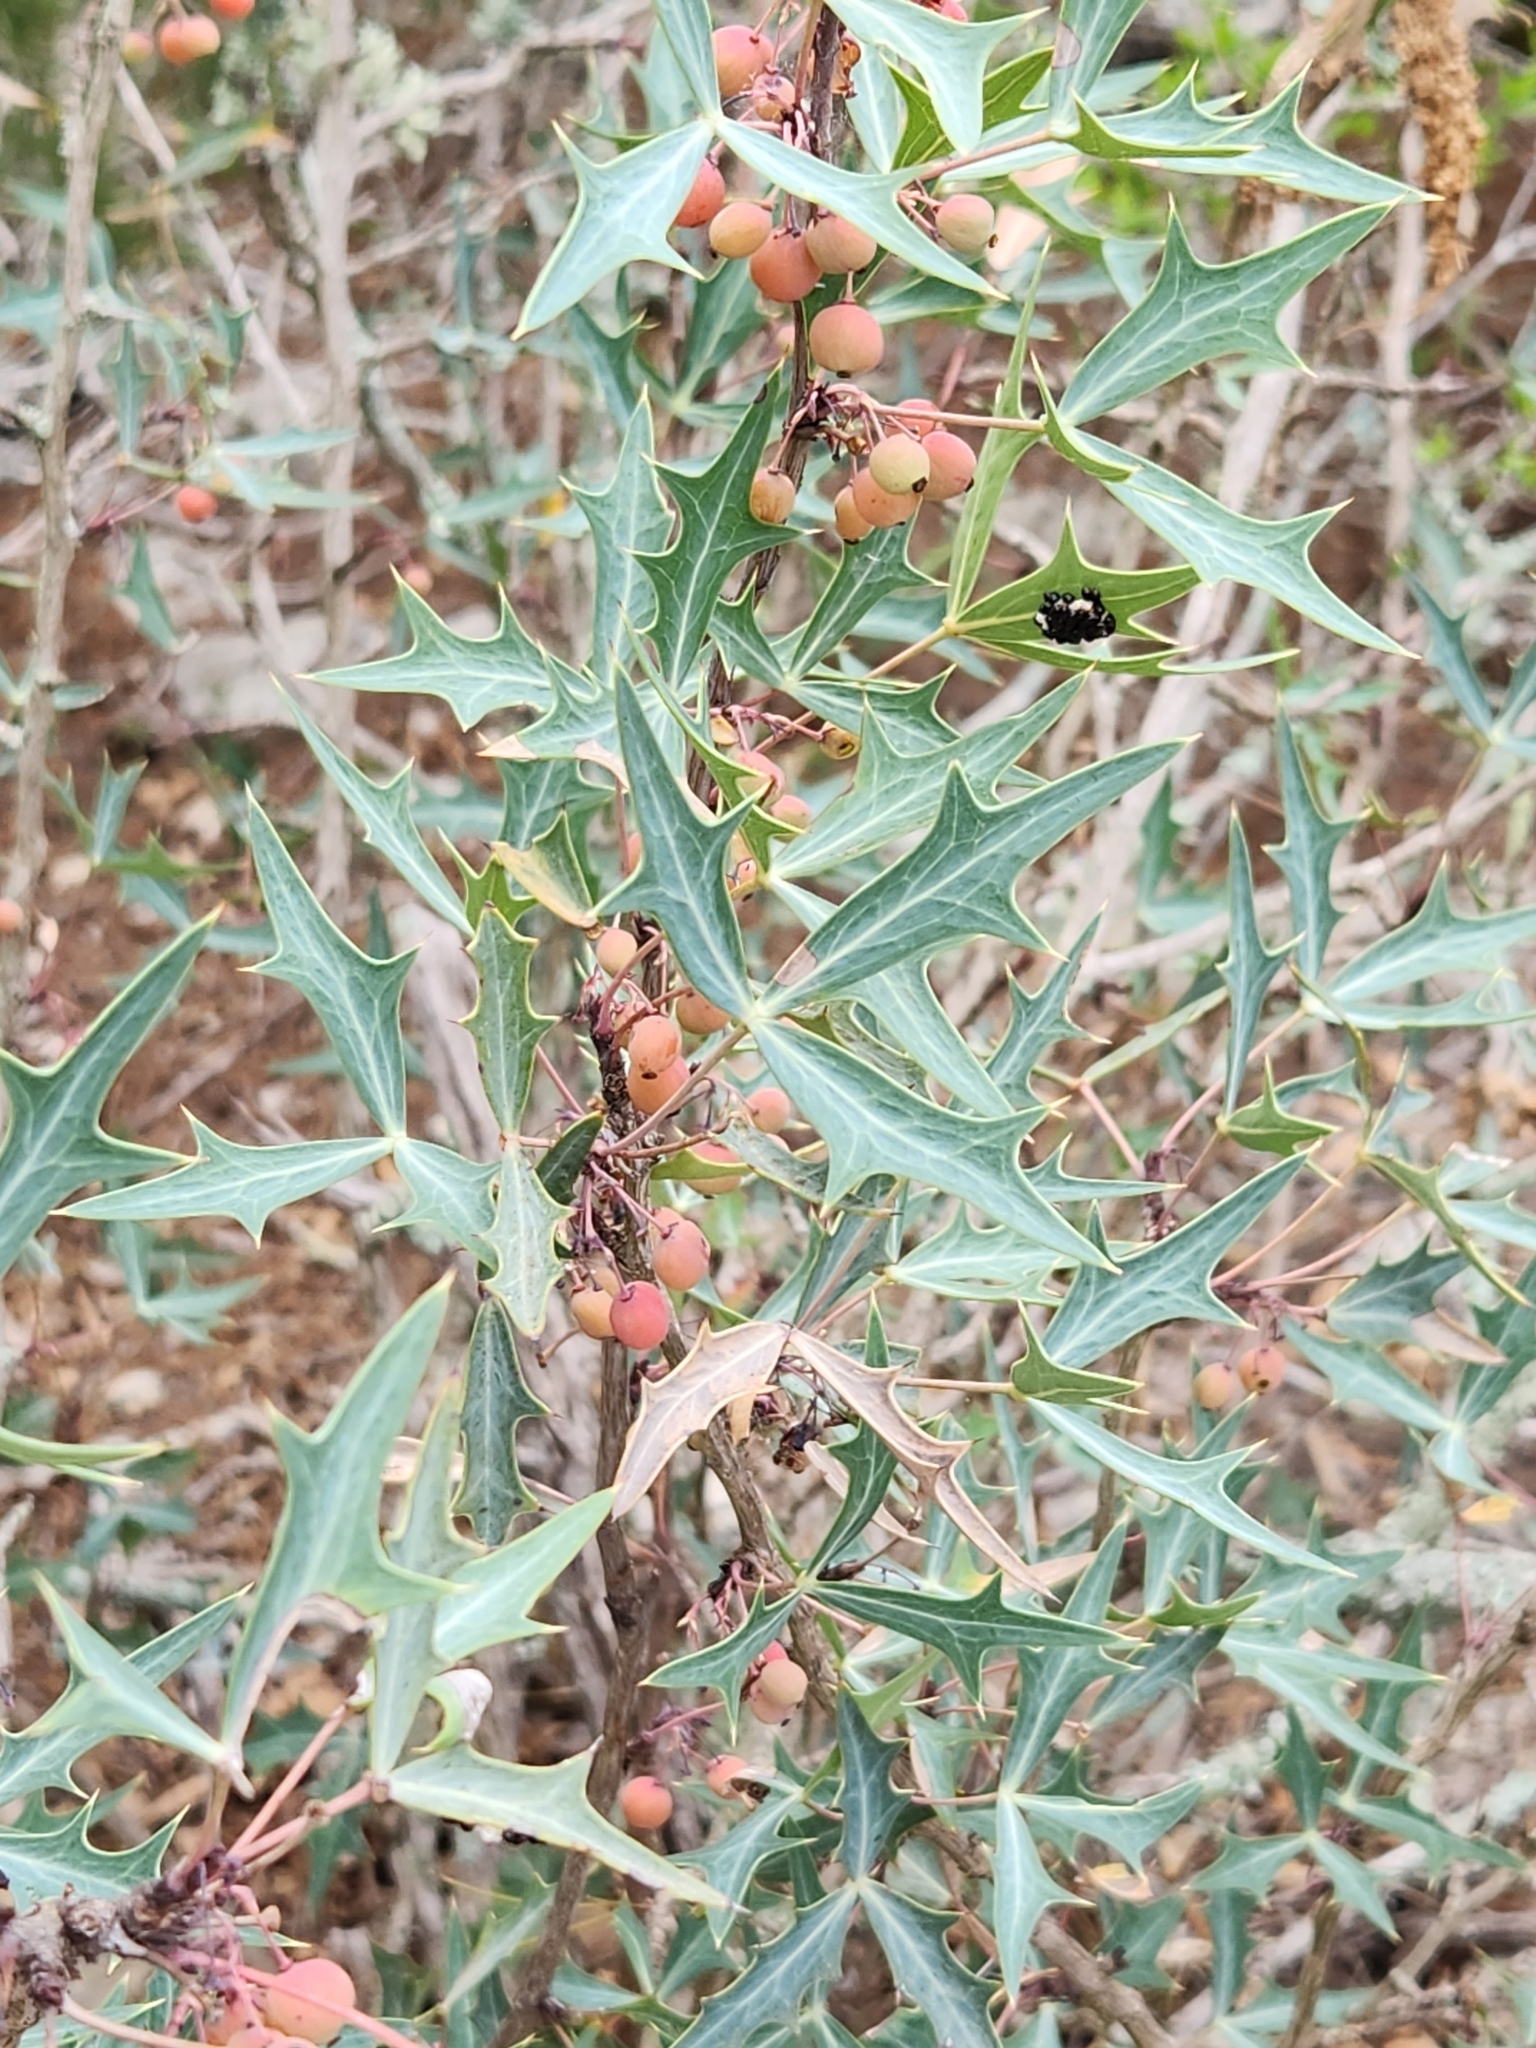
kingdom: Plantae
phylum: Tracheophyta
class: Magnoliopsida
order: Ranunculales
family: Berberidaceae
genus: Alloberberis
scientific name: Alloberberis trifoliolata
